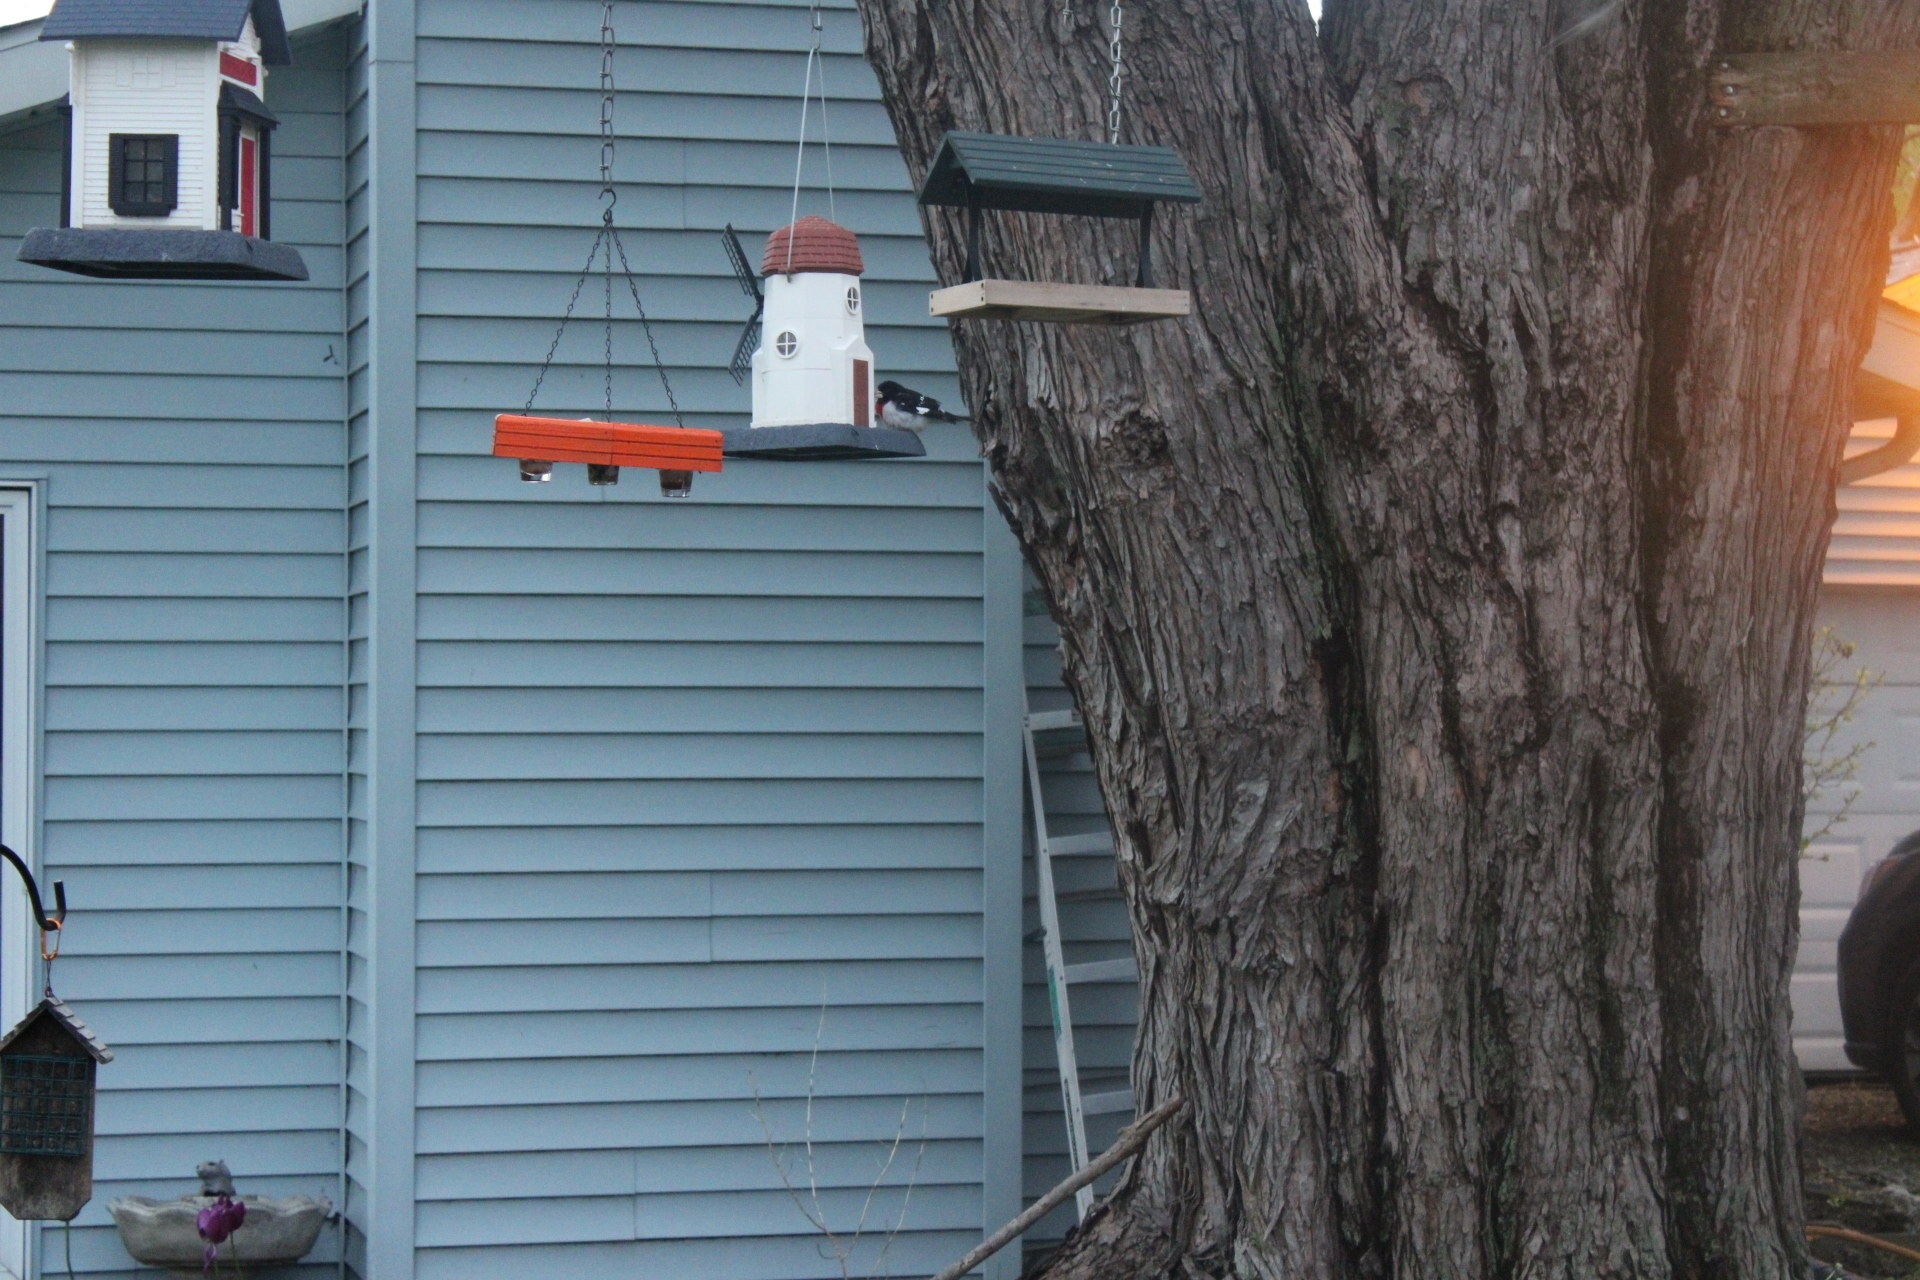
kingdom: Animalia
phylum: Chordata
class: Aves
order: Passeriformes
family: Cardinalidae
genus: Pheucticus
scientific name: Pheucticus ludovicianus
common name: Rose-breasted grosbeak
